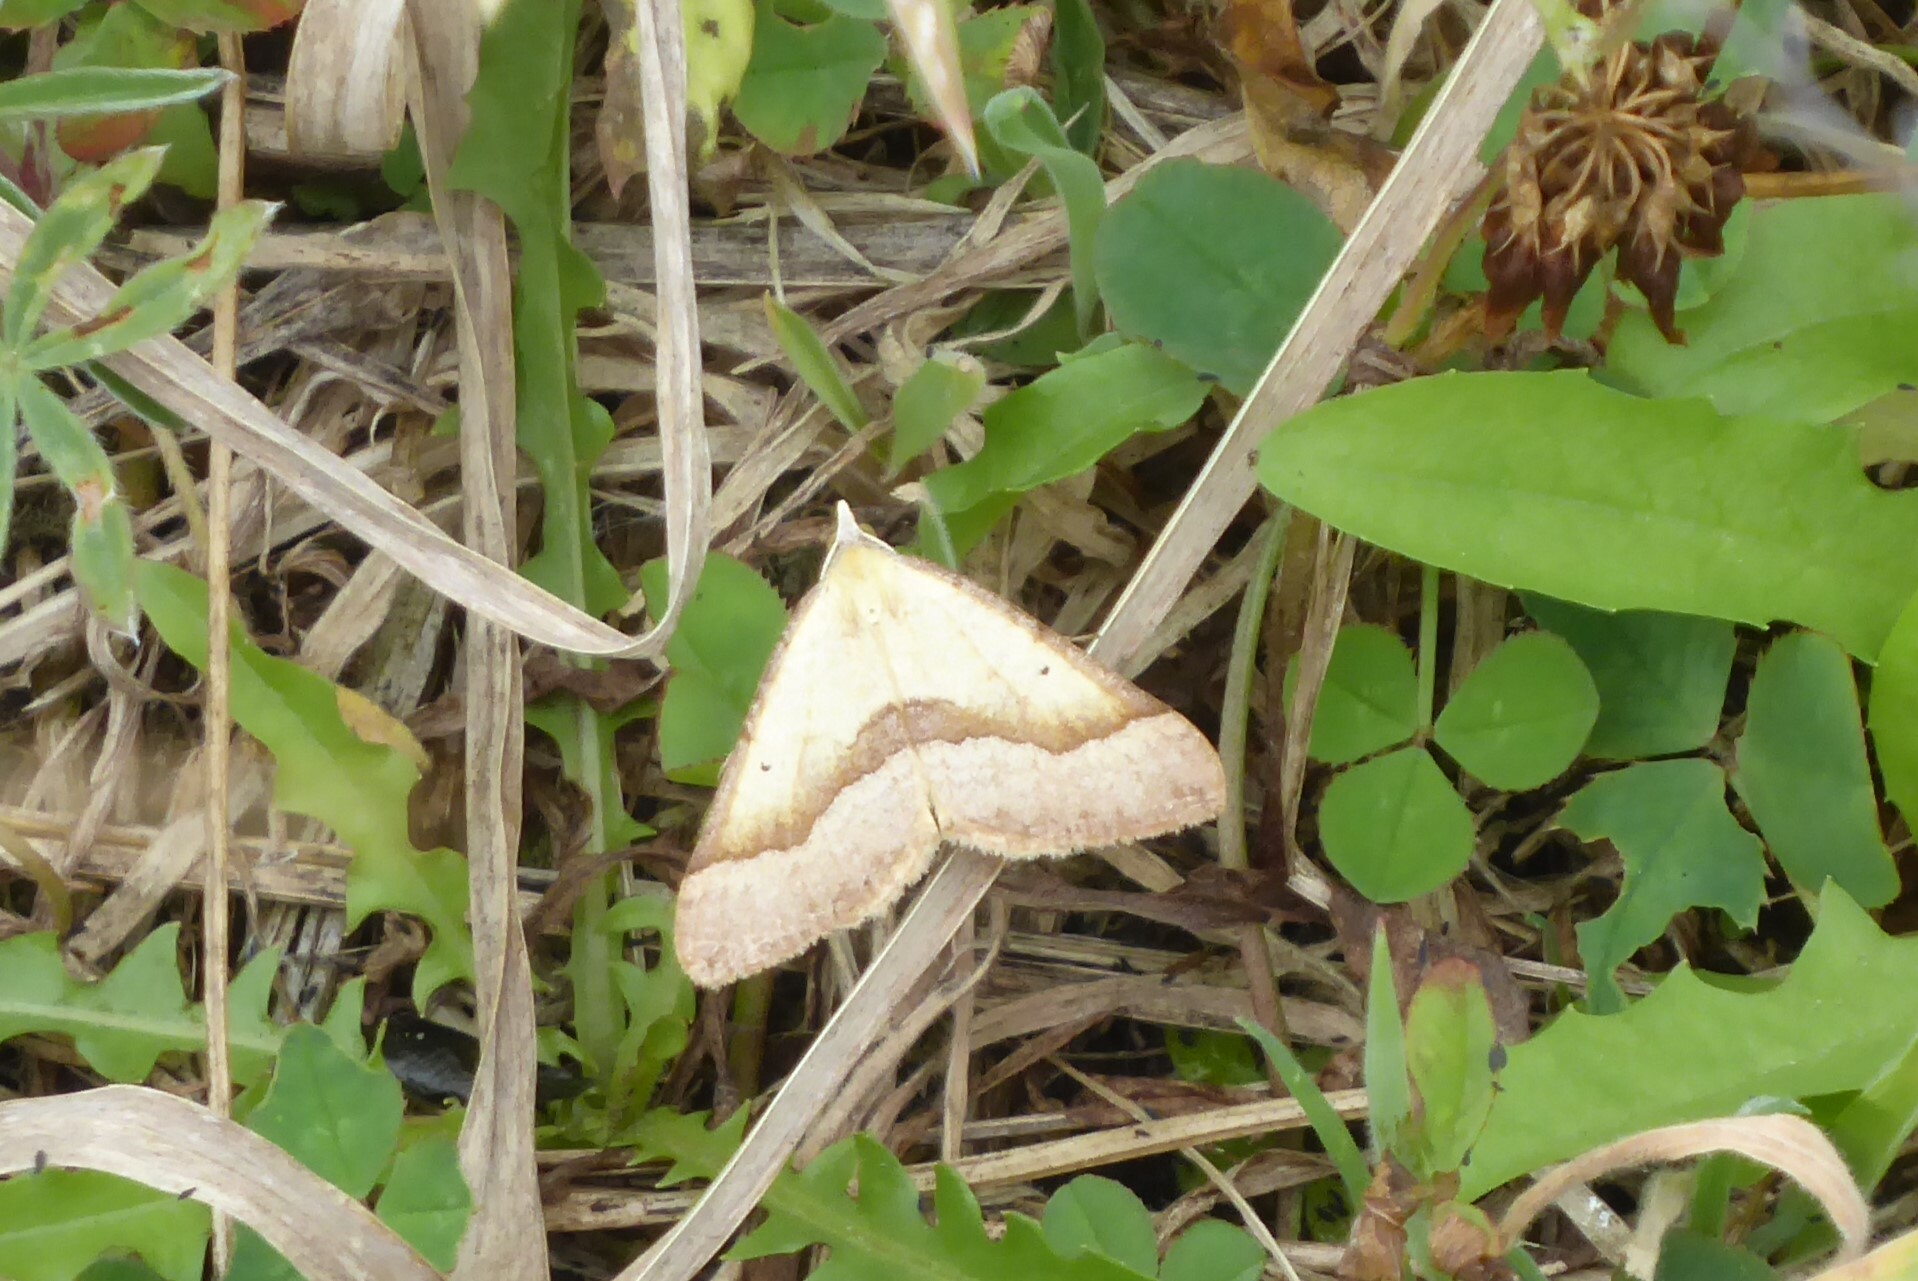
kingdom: Animalia
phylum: Arthropoda
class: Insecta
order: Lepidoptera
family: Geometridae
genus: Anachloris
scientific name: Anachloris subochraria
